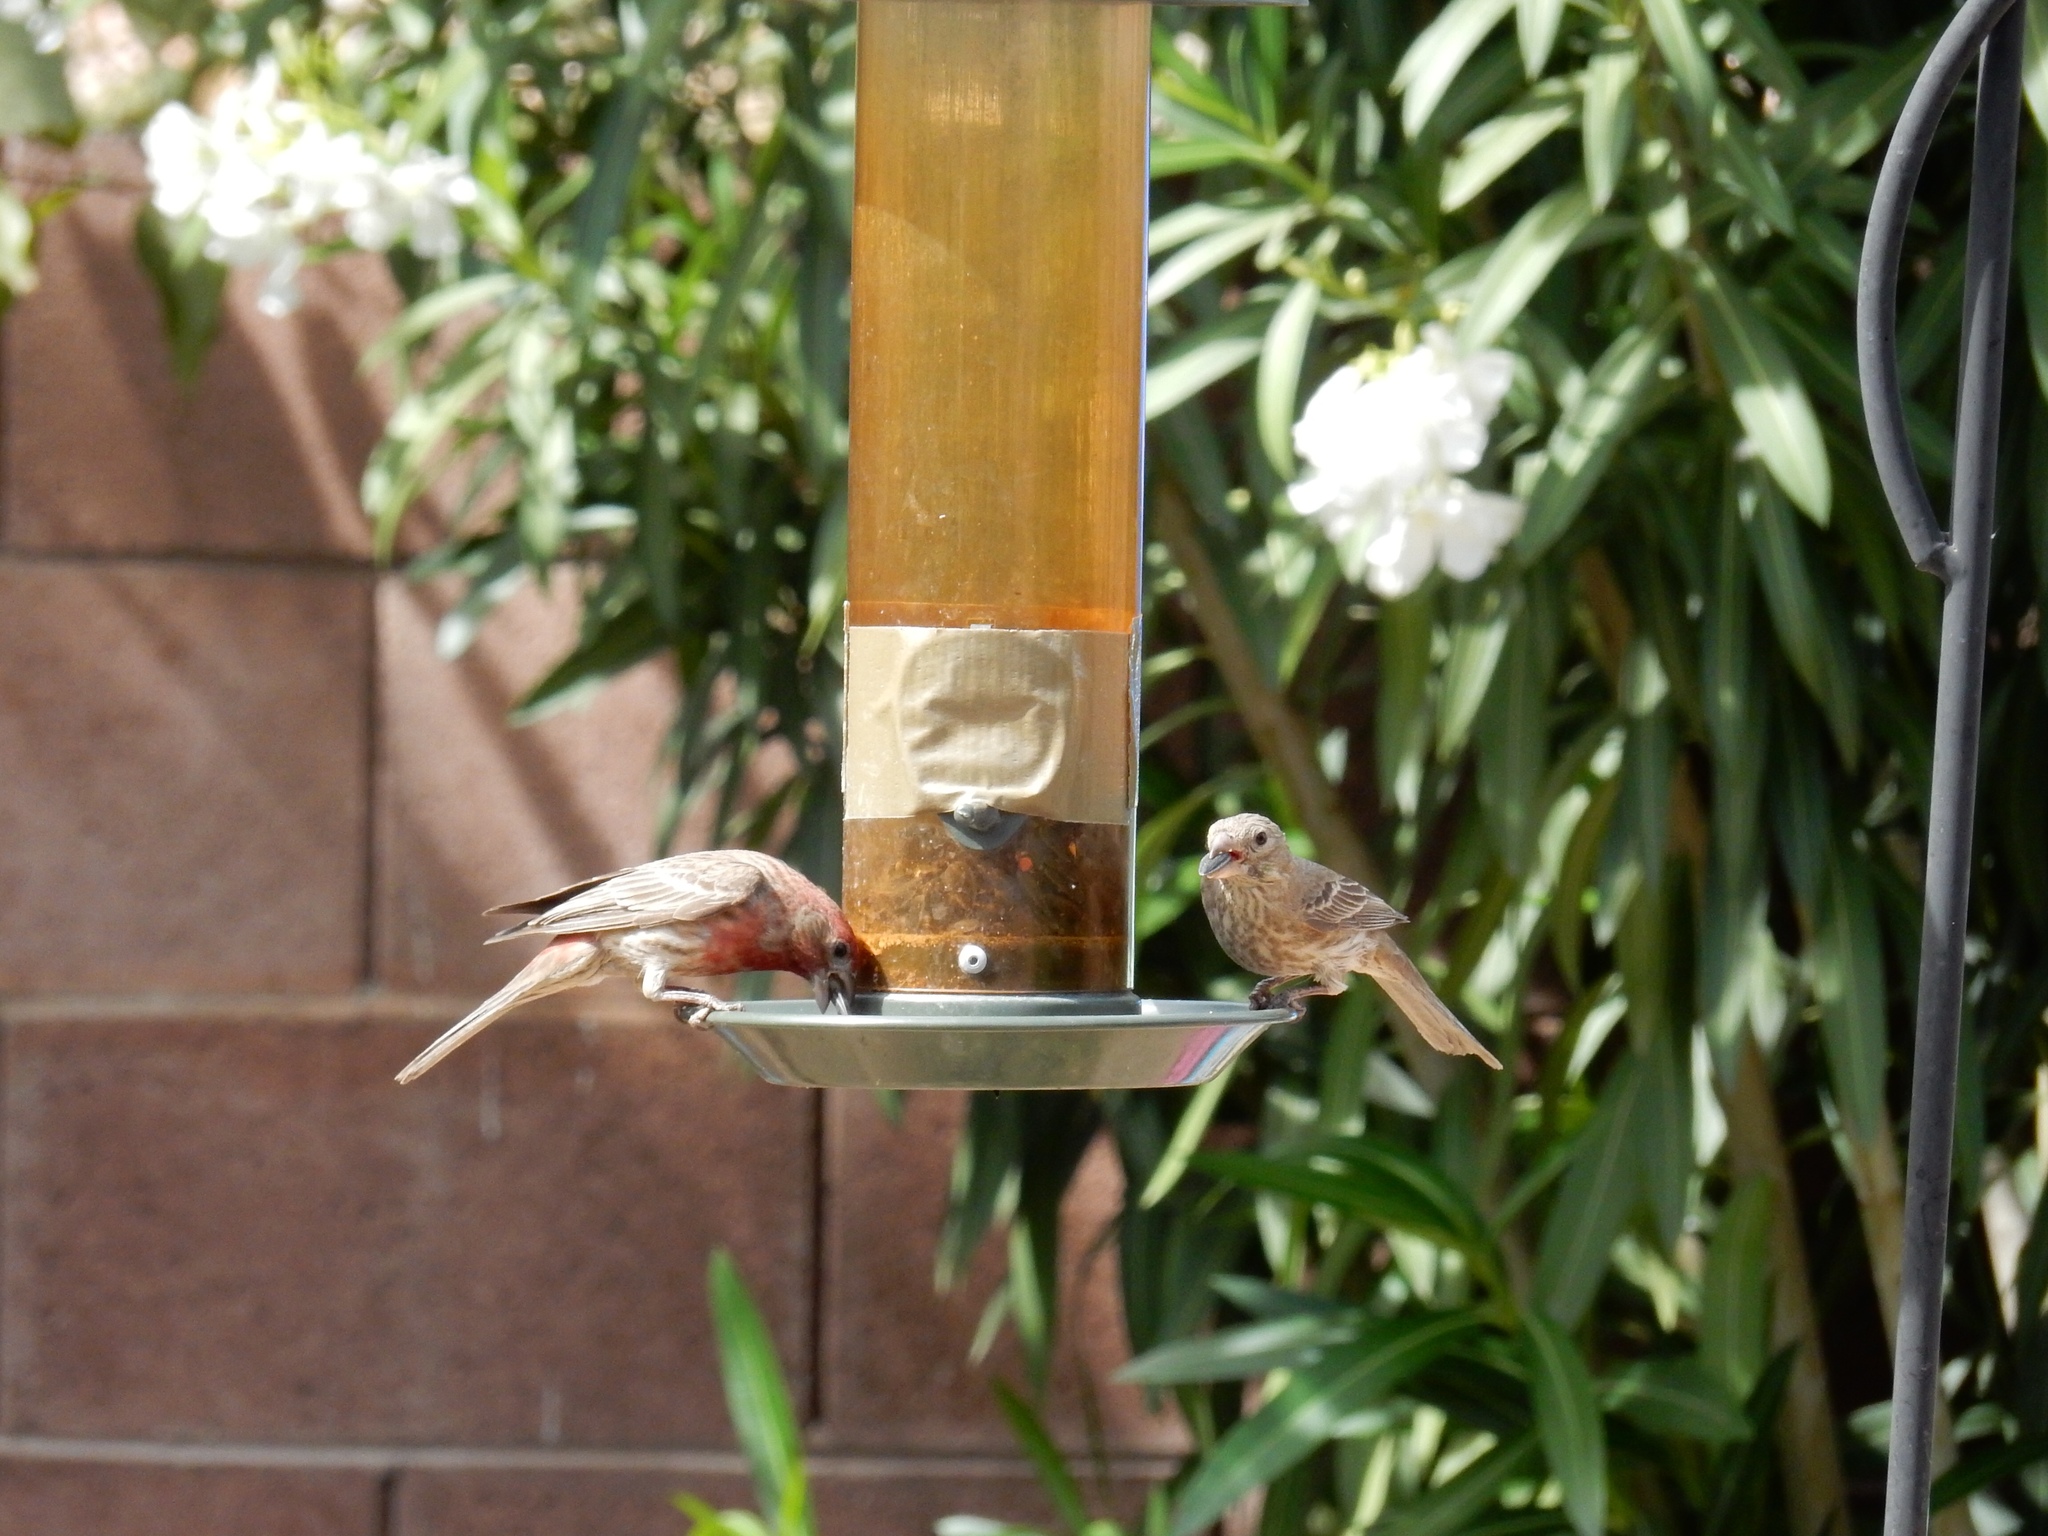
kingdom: Animalia
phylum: Chordata
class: Aves
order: Passeriformes
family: Fringillidae
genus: Haemorhous
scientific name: Haemorhous mexicanus
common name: House finch
